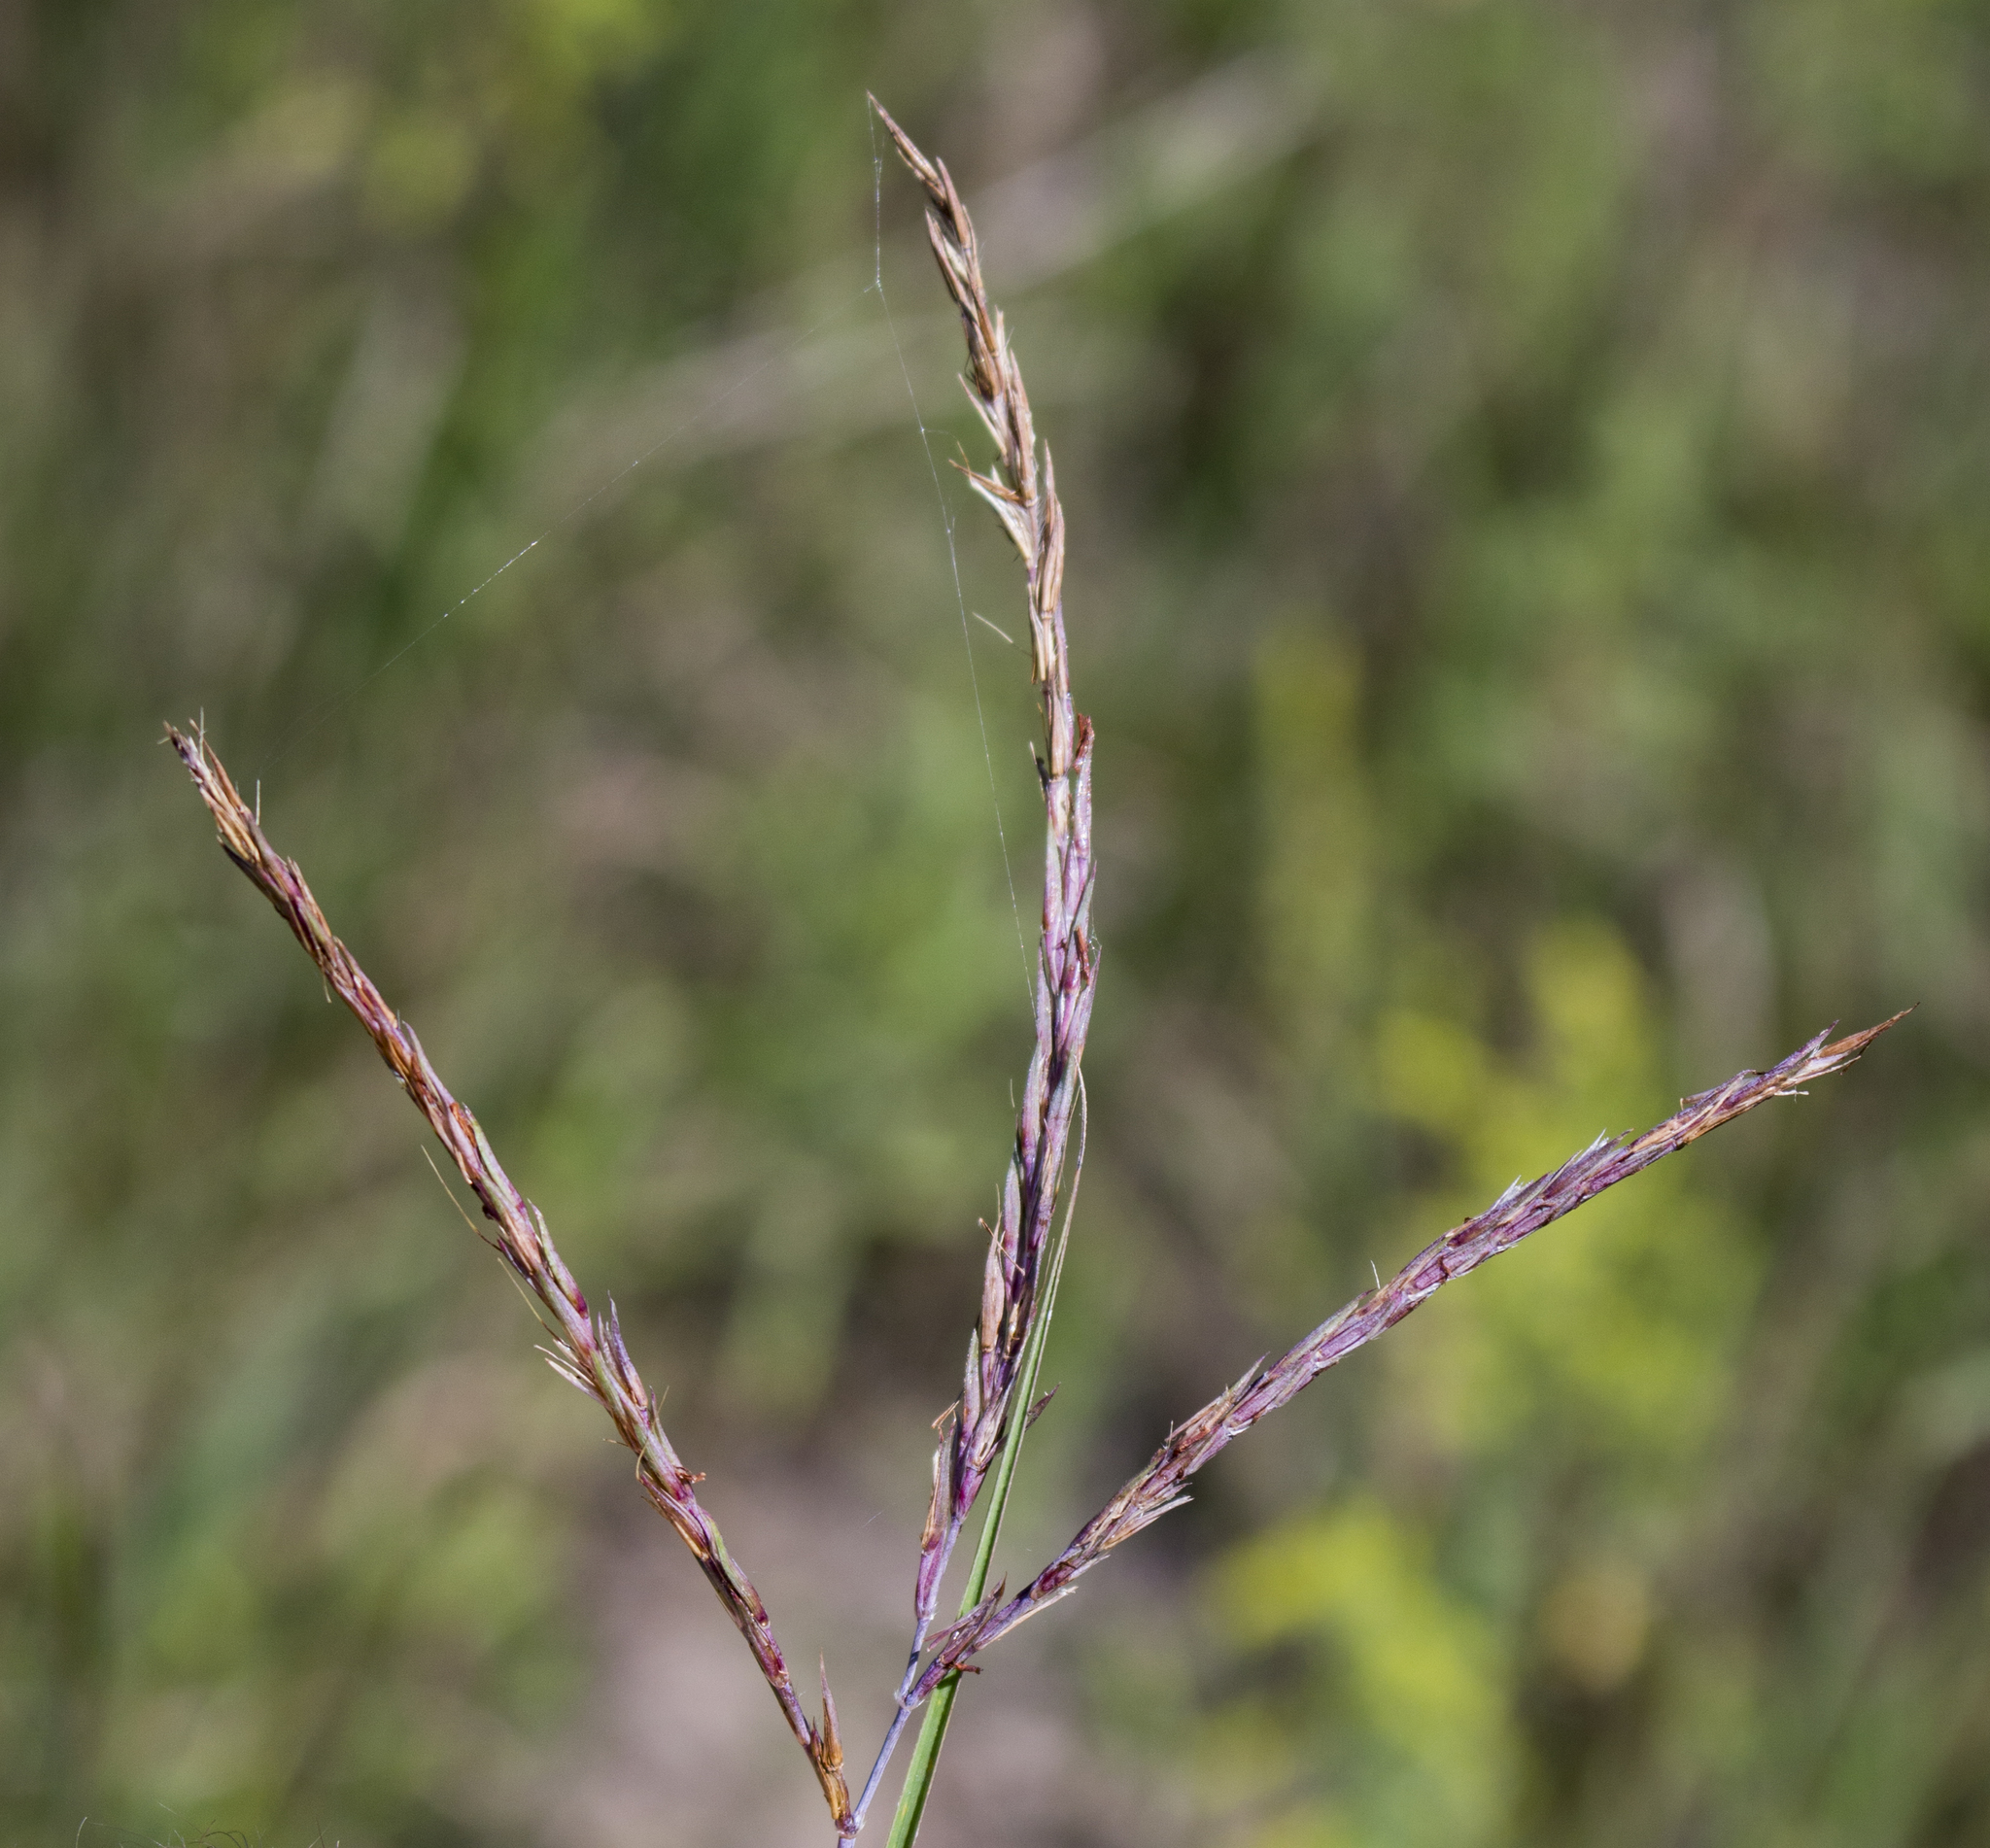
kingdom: Plantae
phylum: Tracheophyta
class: Liliopsida
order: Poales
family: Poaceae
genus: Andropogon
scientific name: Andropogon gerardi
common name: Big bluestem
